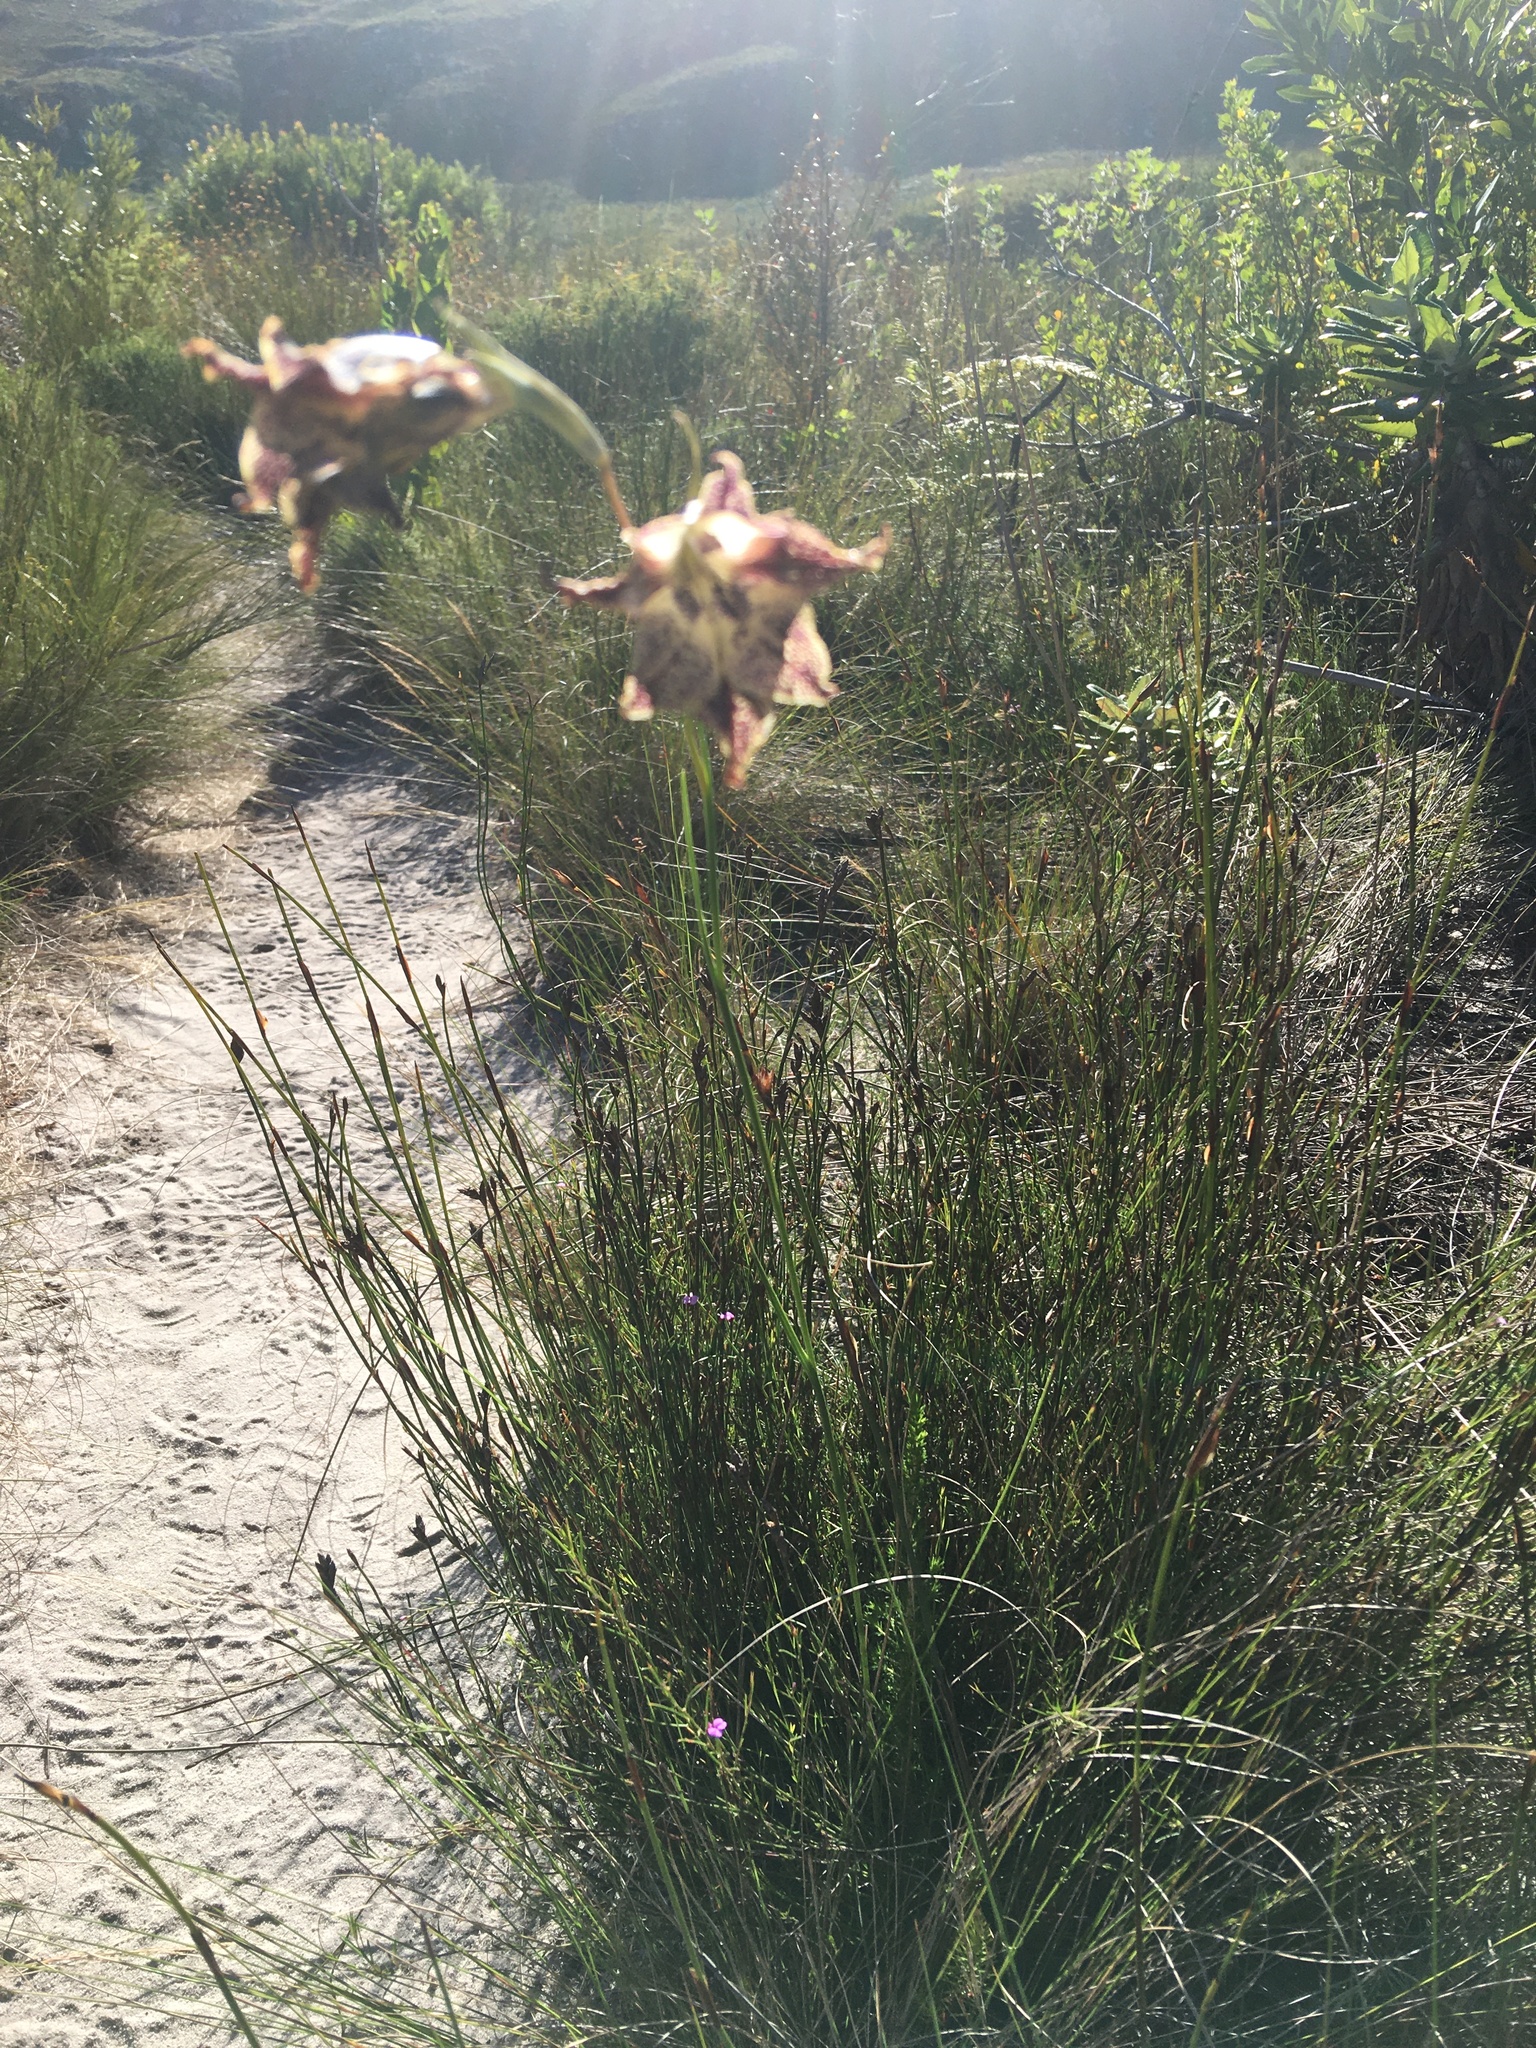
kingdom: Plantae
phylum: Tracheophyta
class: Liliopsida
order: Asparagales
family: Iridaceae
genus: Gladiolus
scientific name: Gladiolus maculatus
